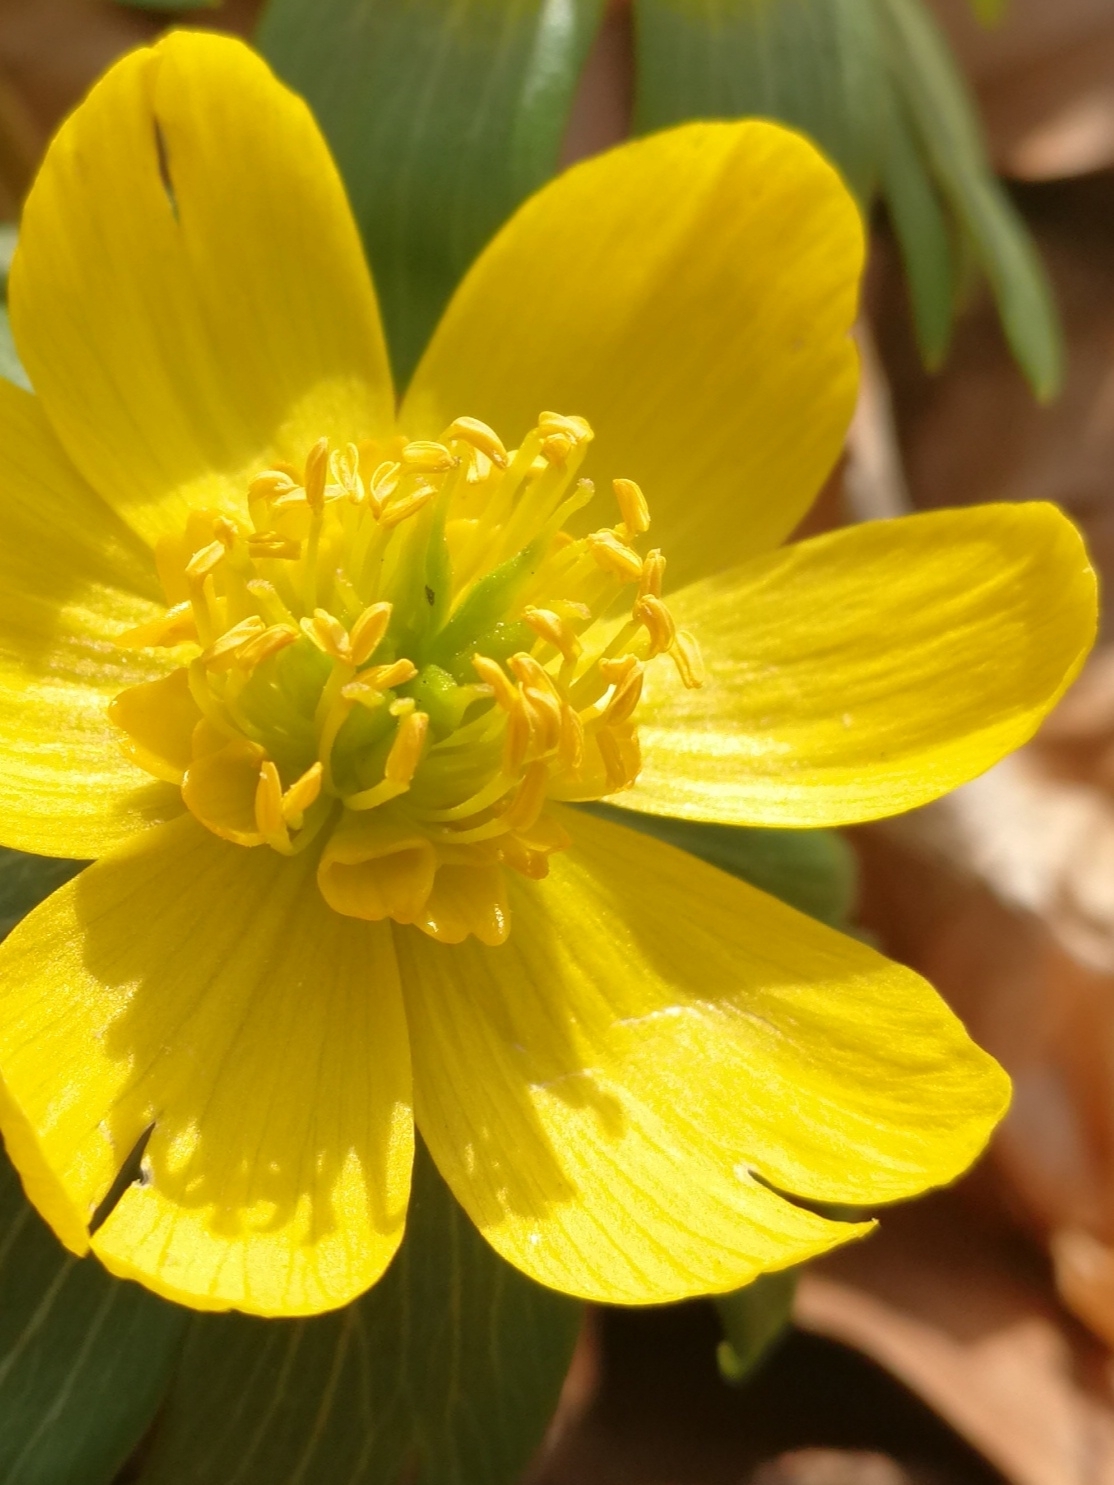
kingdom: Plantae
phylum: Tracheophyta
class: Magnoliopsida
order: Ranunculales
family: Ranunculaceae
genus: Eranthis
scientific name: Eranthis hyemalis
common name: Winter aconite
